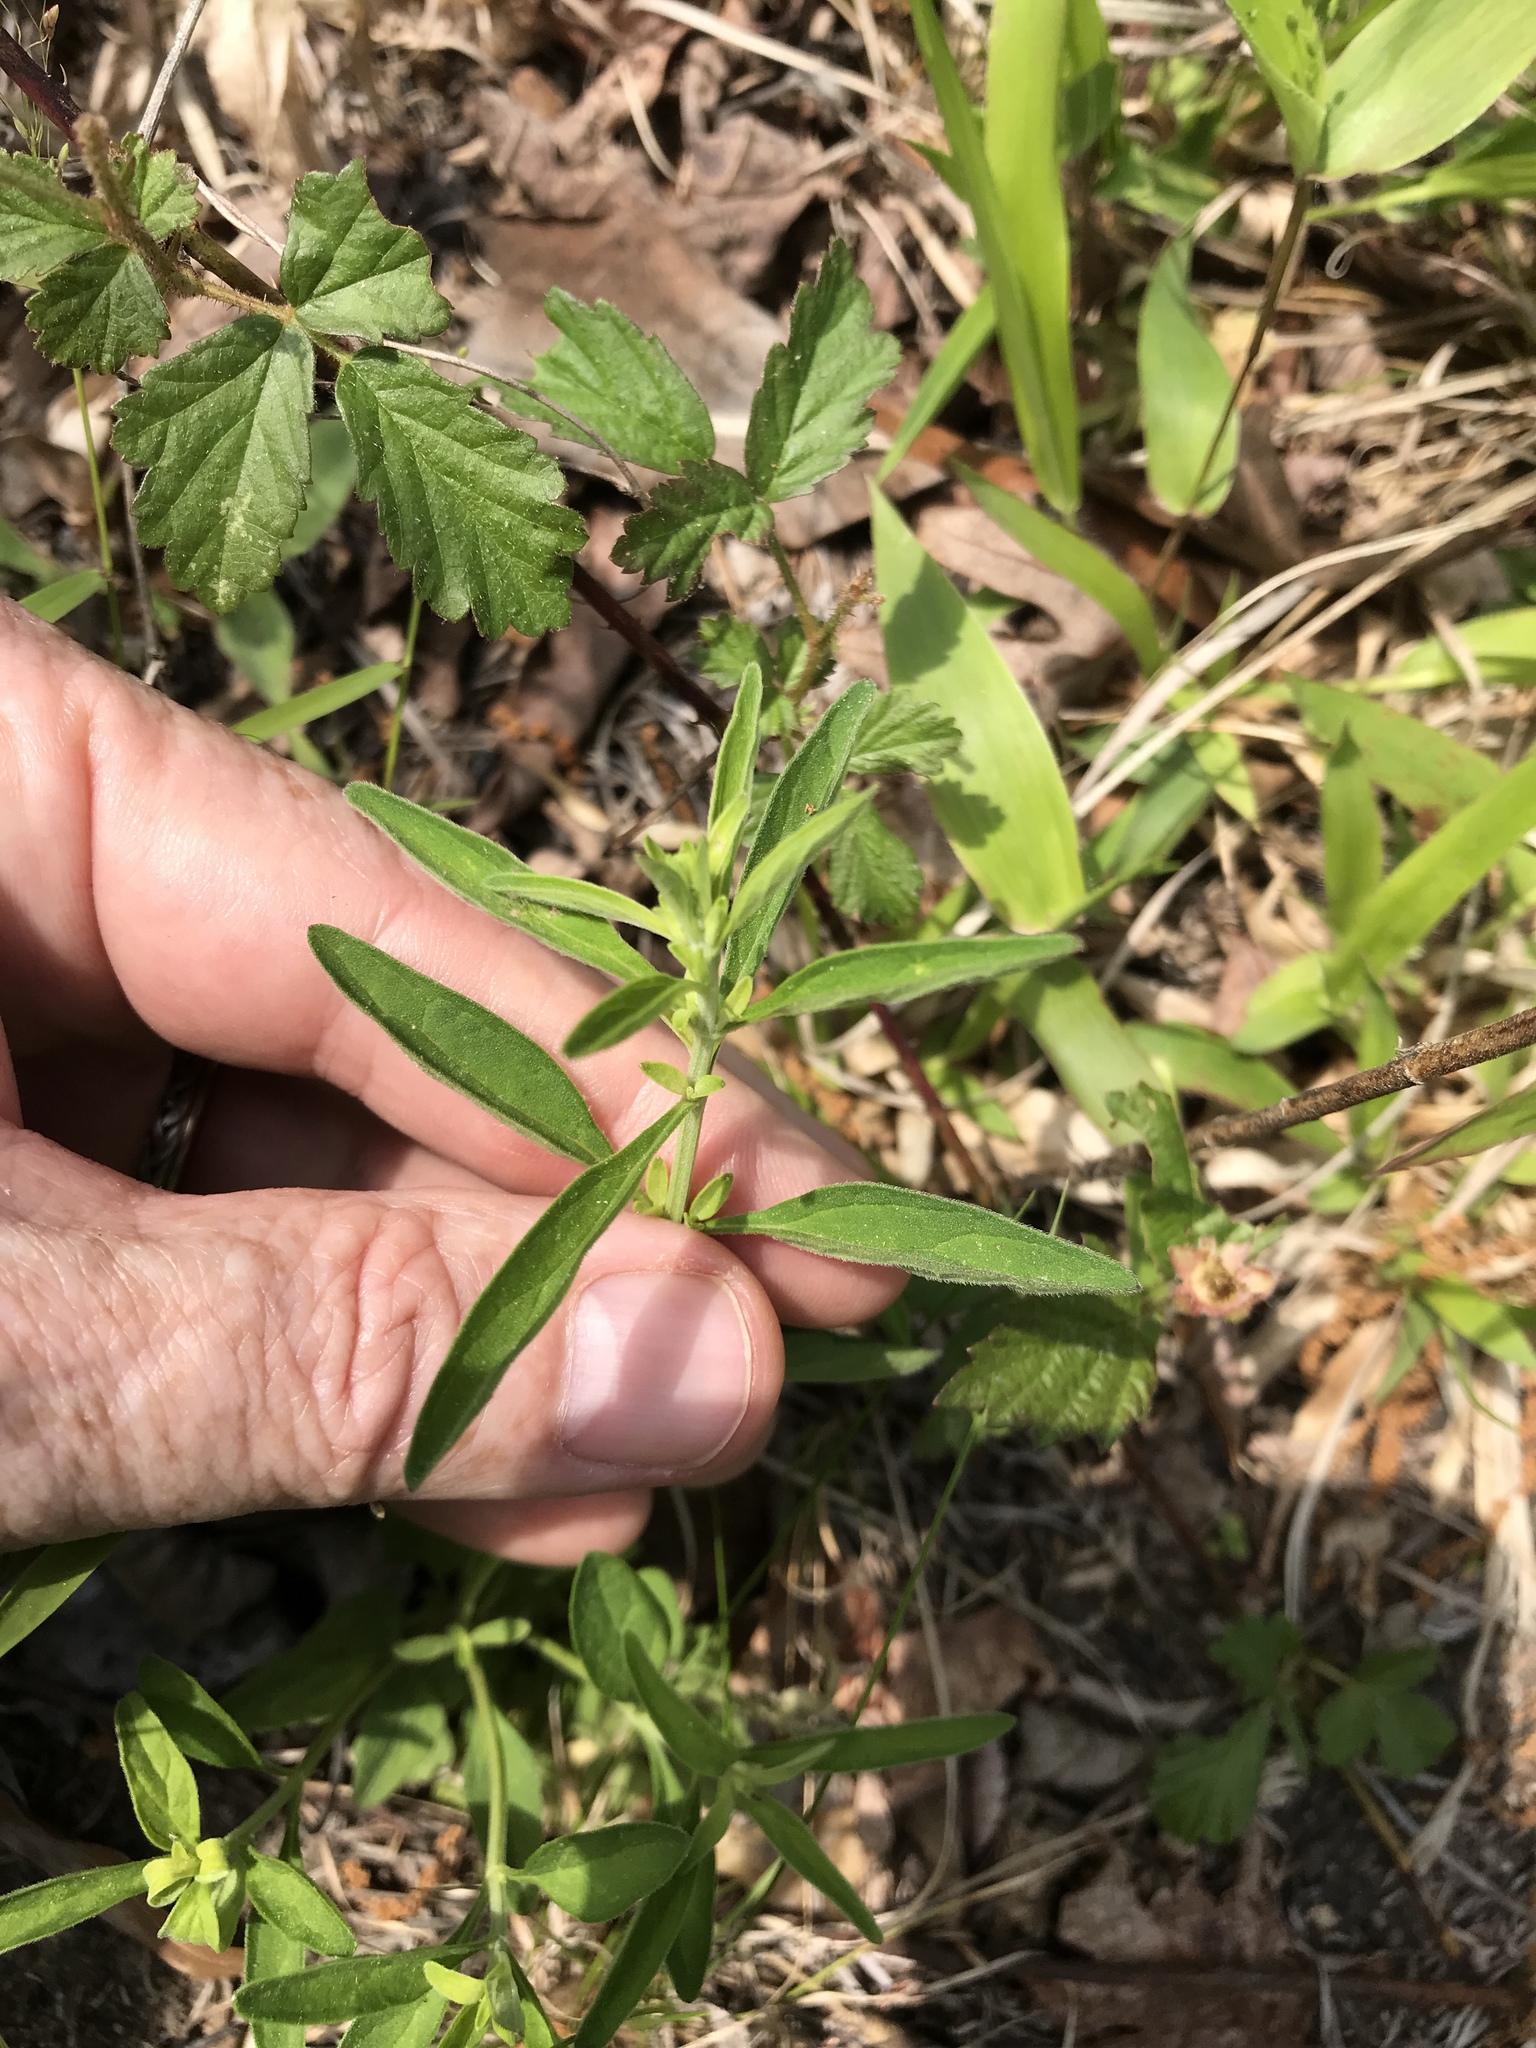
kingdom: Plantae
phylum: Tracheophyta
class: Magnoliopsida
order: Lamiales
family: Lamiaceae
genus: Scutellaria
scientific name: Scutellaria integrifolia
